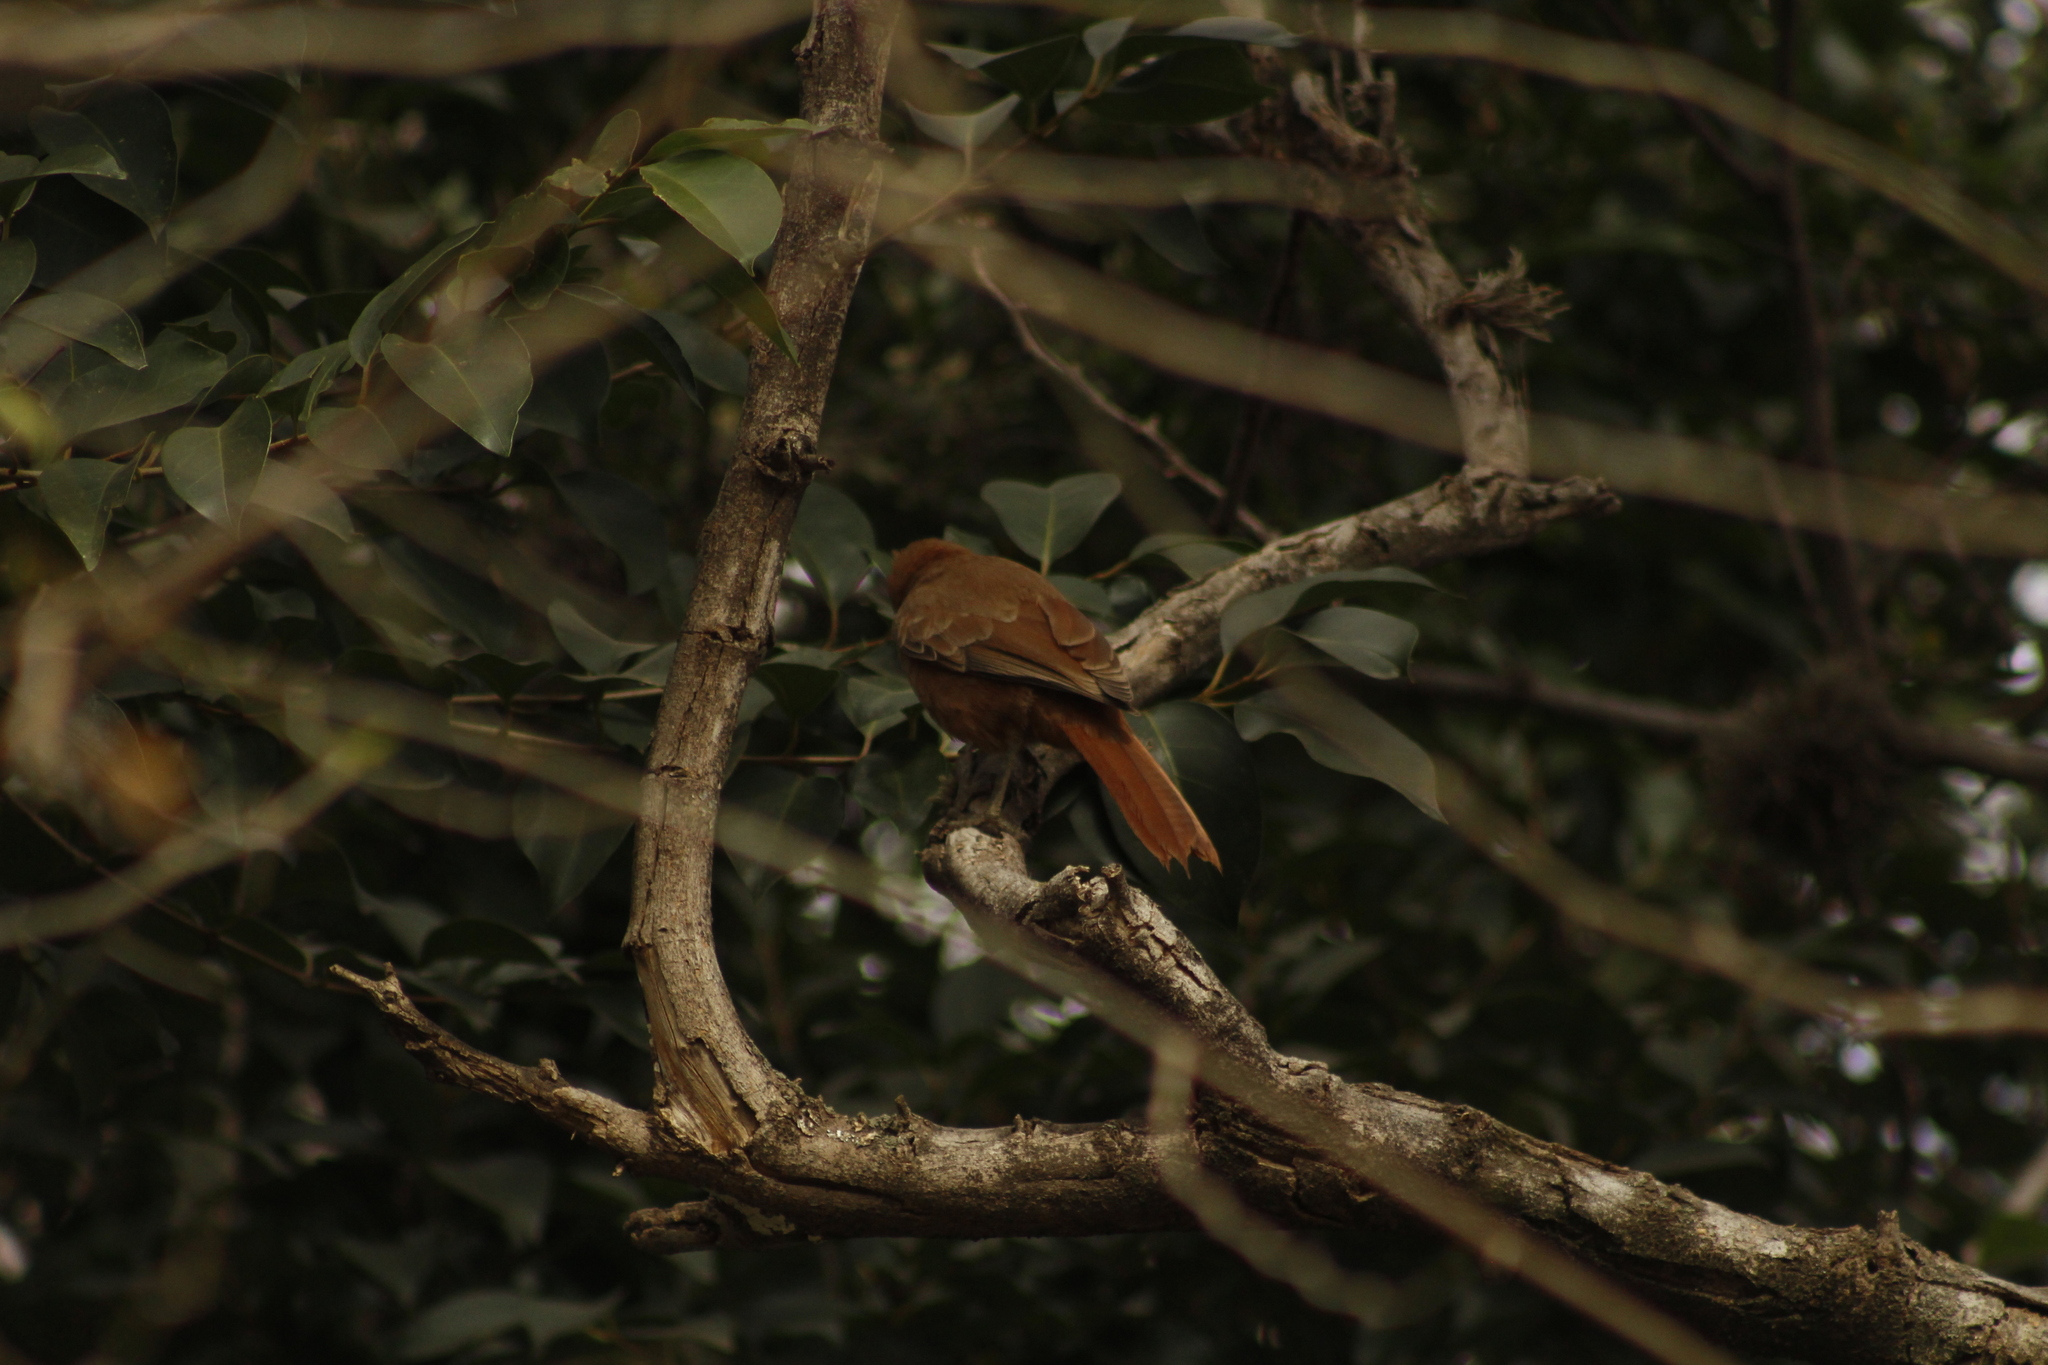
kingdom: Animalia
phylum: Chordata
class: Aves
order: Passeriformes
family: Furnariidae
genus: Pseudoseisura
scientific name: Pseudoseisura lophotes
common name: Brown cacholote
